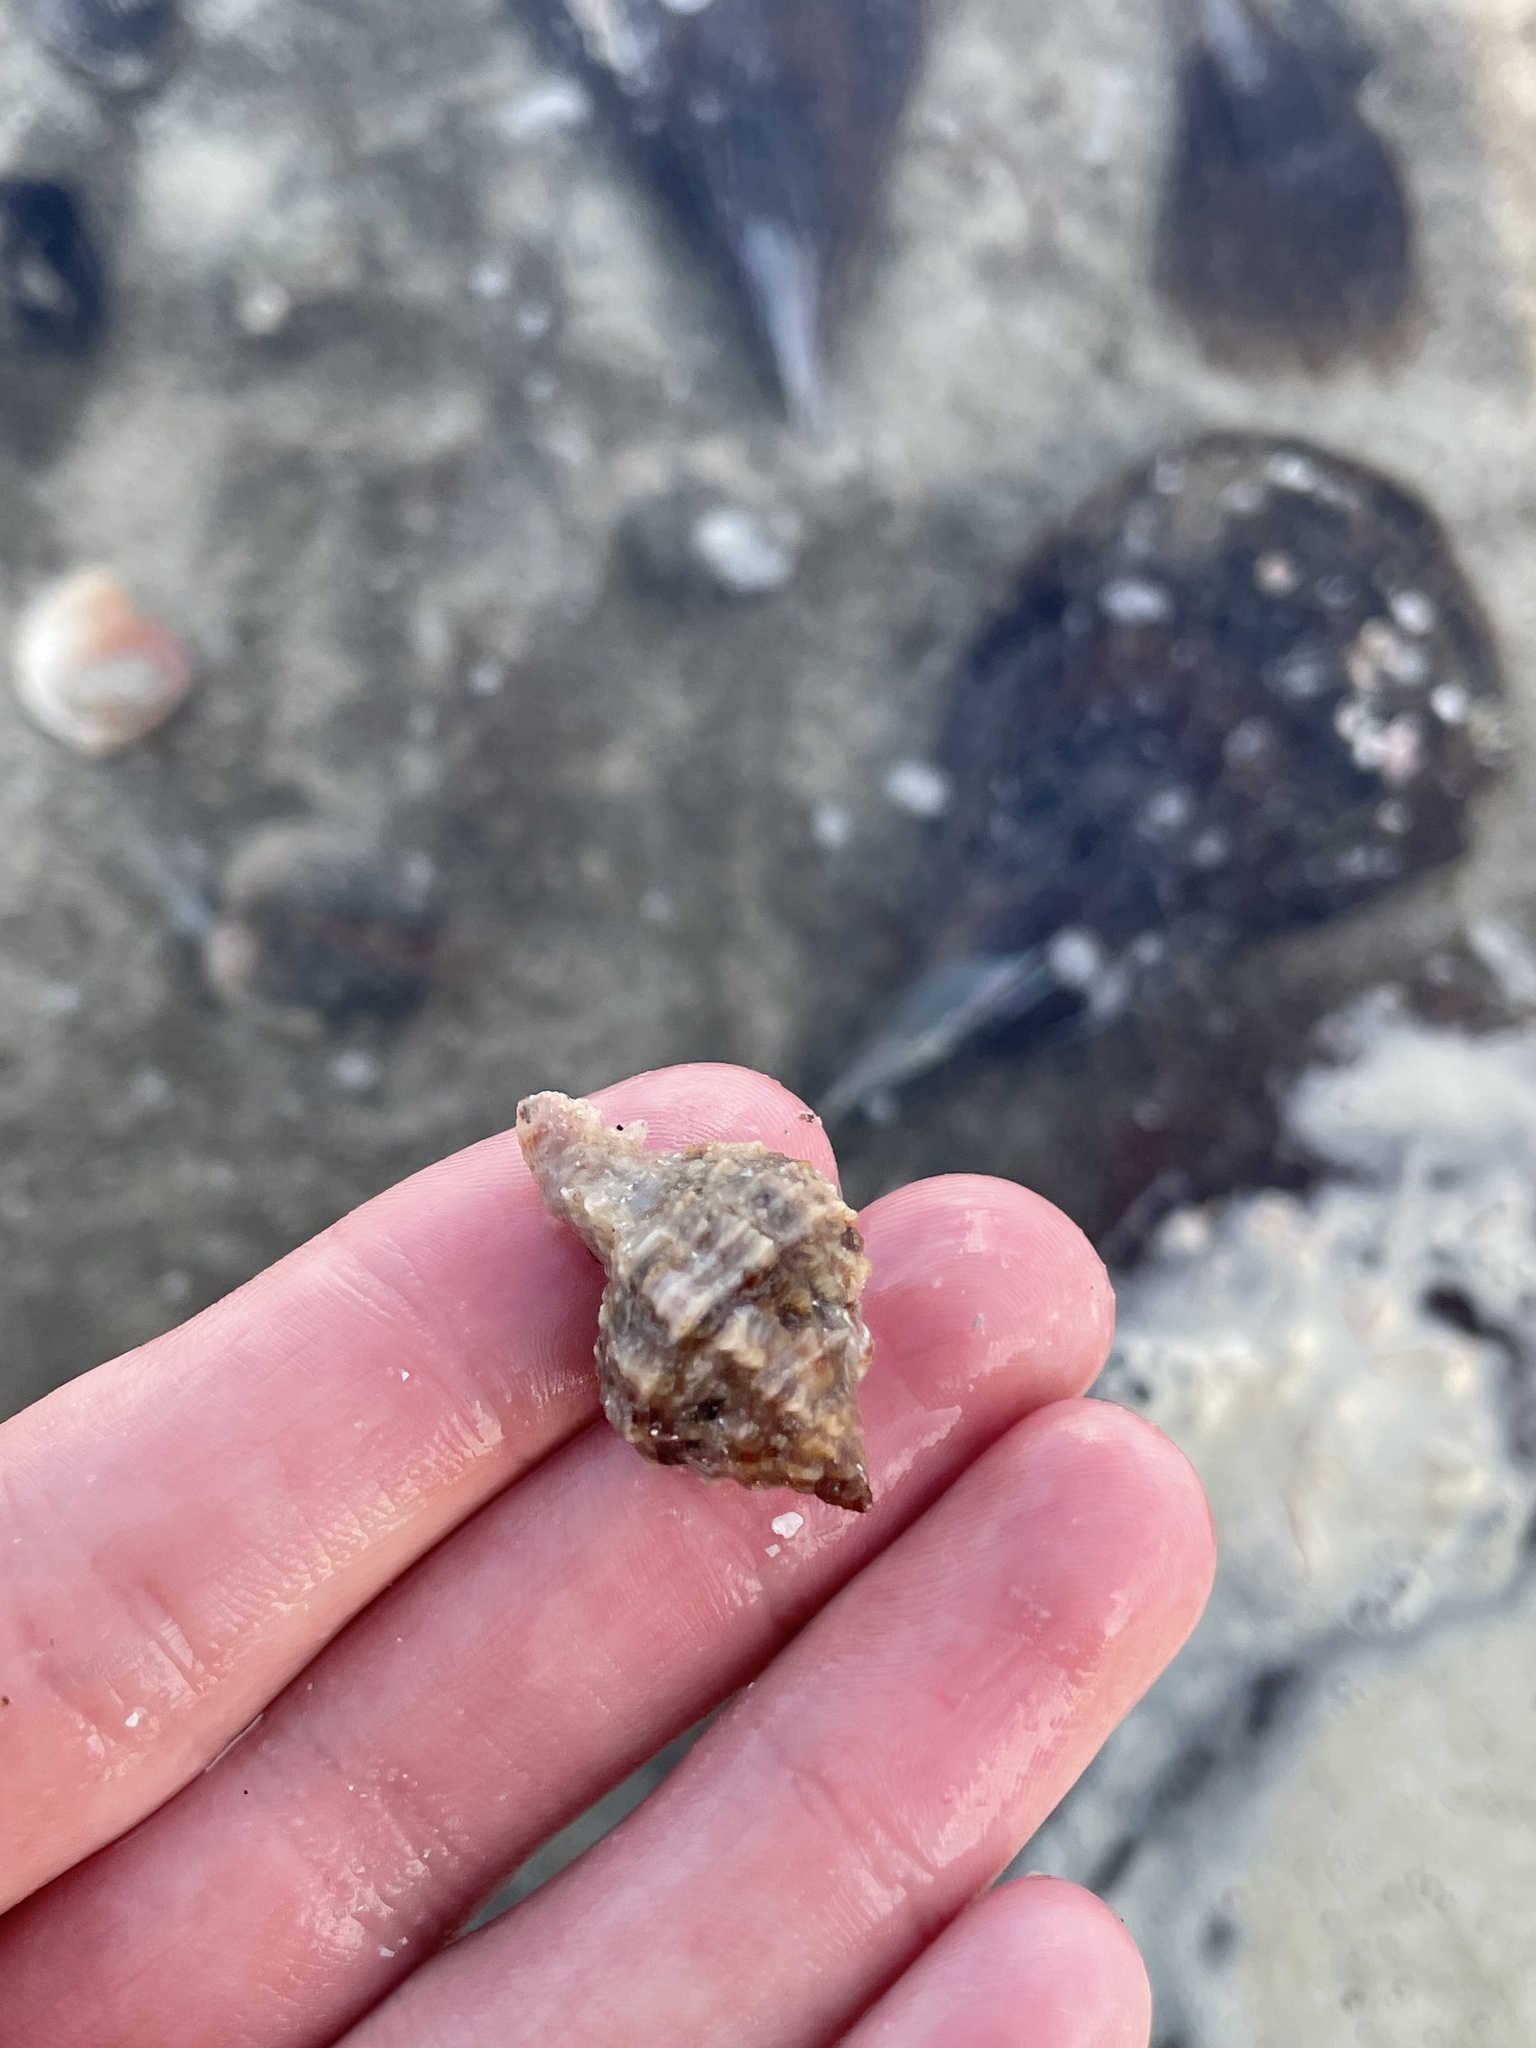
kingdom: Animalia
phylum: Mollusca
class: Gastropoda
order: Neogastropoda
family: Muricidae
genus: Phyllonotus
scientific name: Phyllonotus pomum
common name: Apple murex
